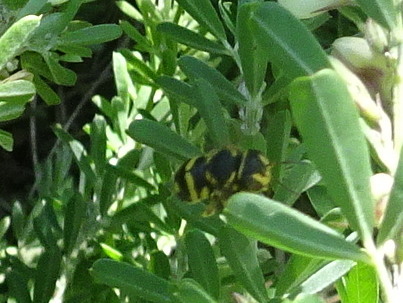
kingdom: Animalia
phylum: Arthropoda
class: Insecta
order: Hymenoptera
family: Megachilidae
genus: Anthidiellum
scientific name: Anthidiellum notatum
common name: Northern rotund-resin bee
